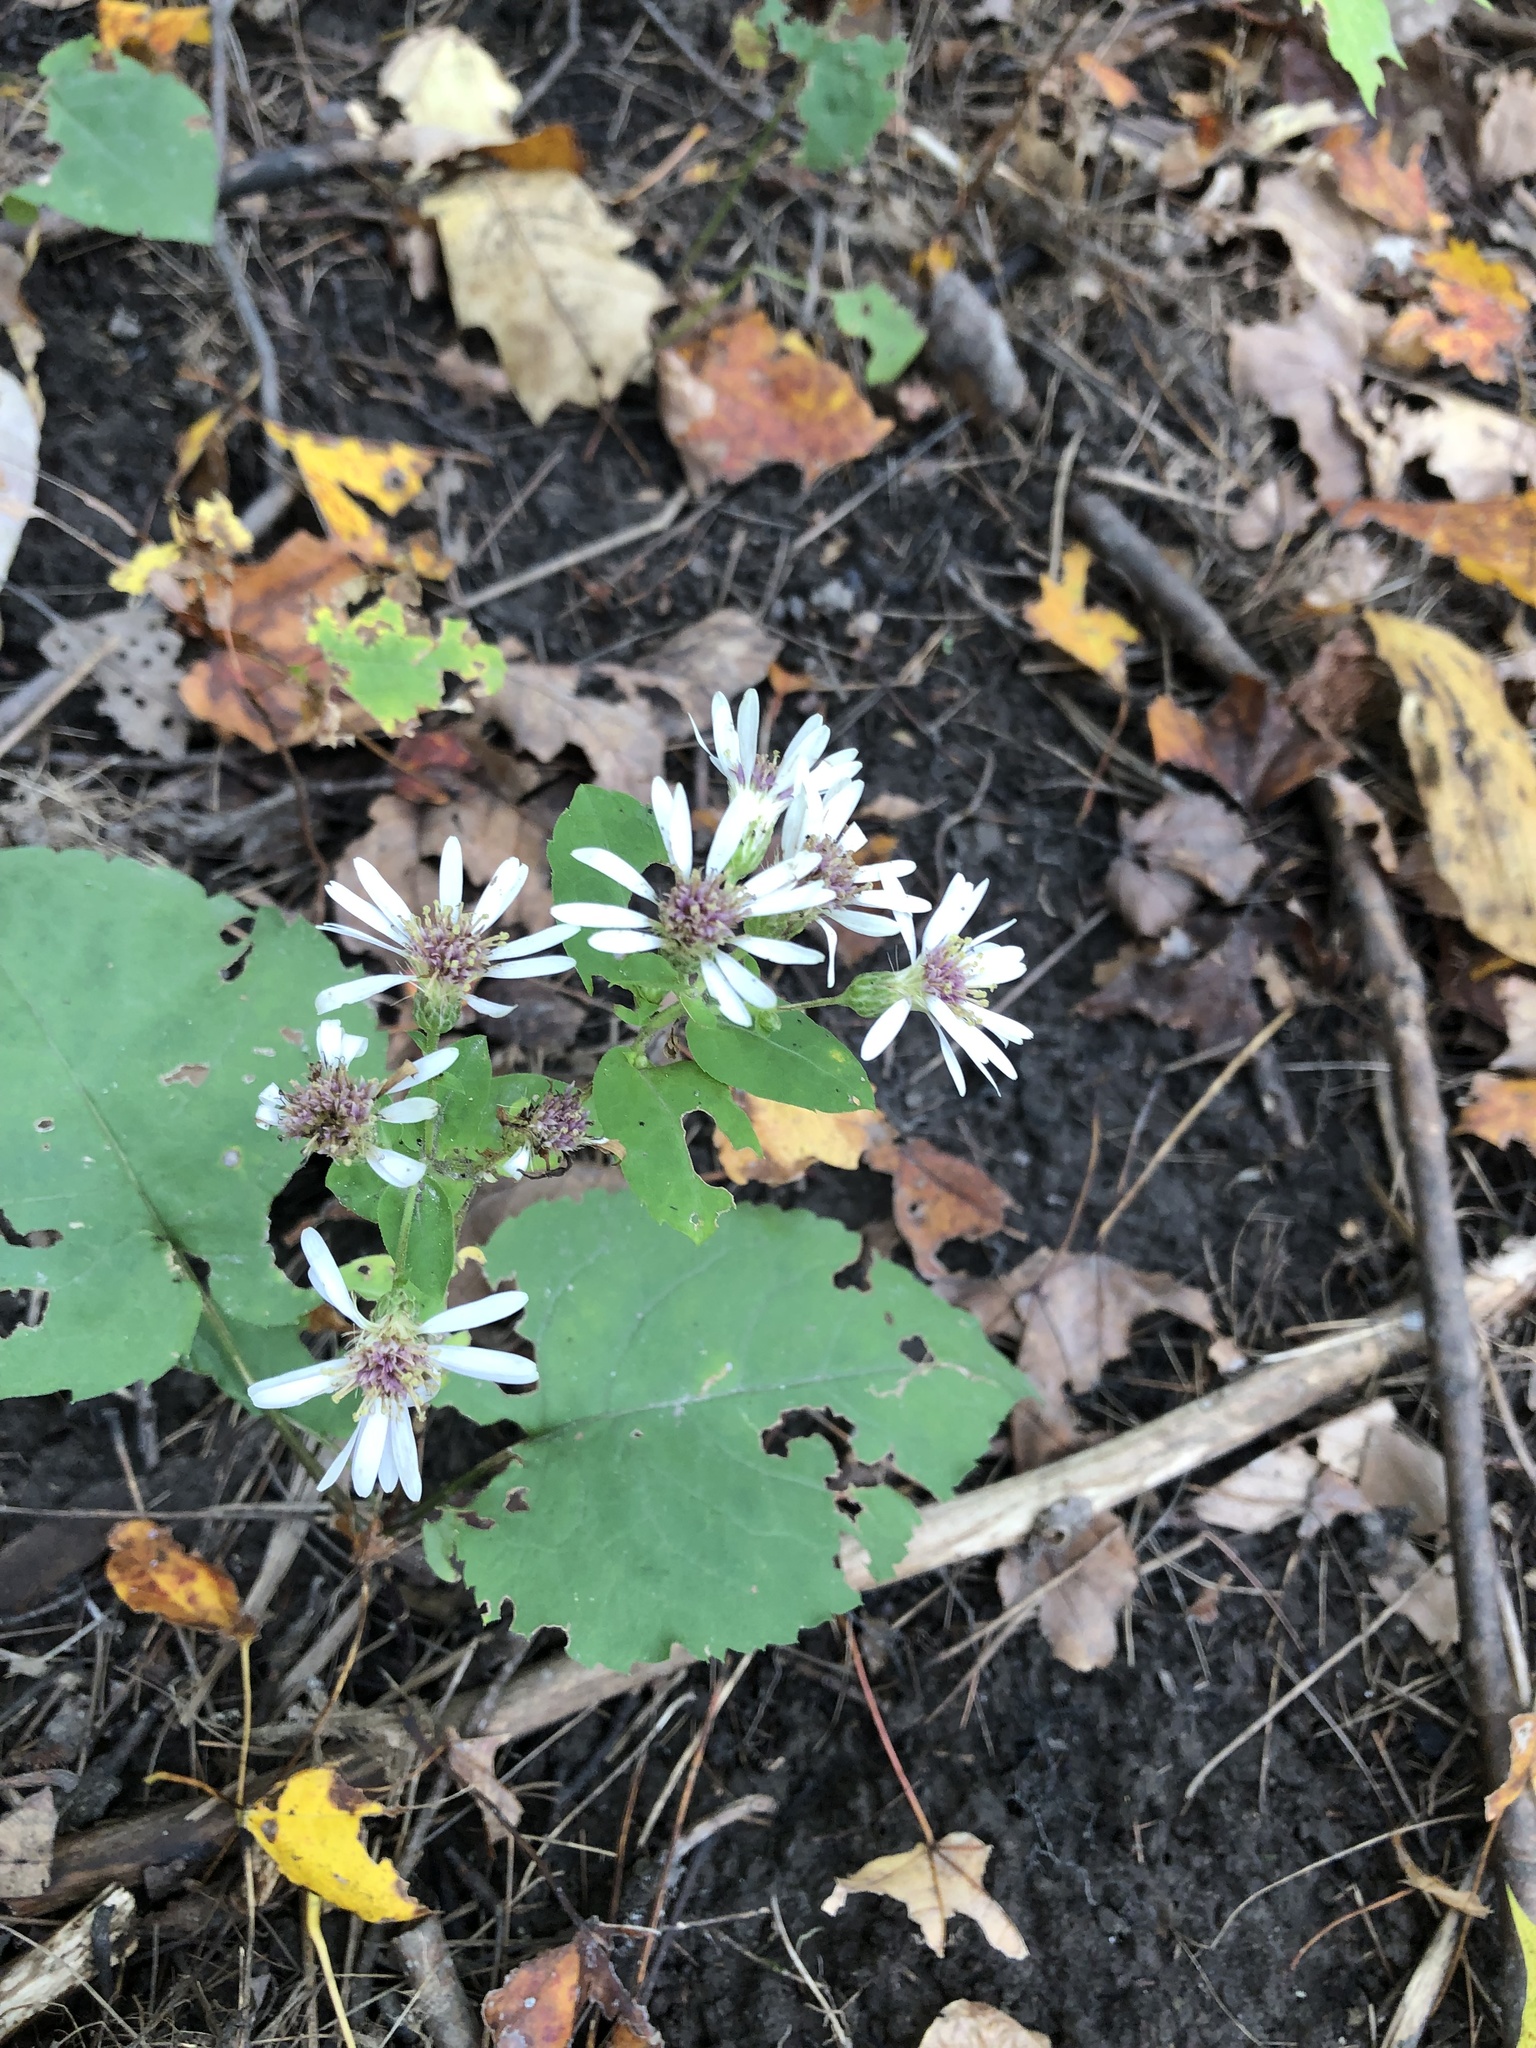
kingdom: Plantae
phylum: Tracheophyta
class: Magnoliopsida
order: Asterales
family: Asteraceae
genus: Eurybia
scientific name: Eurybia macrophylla
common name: Big-leaved aster
